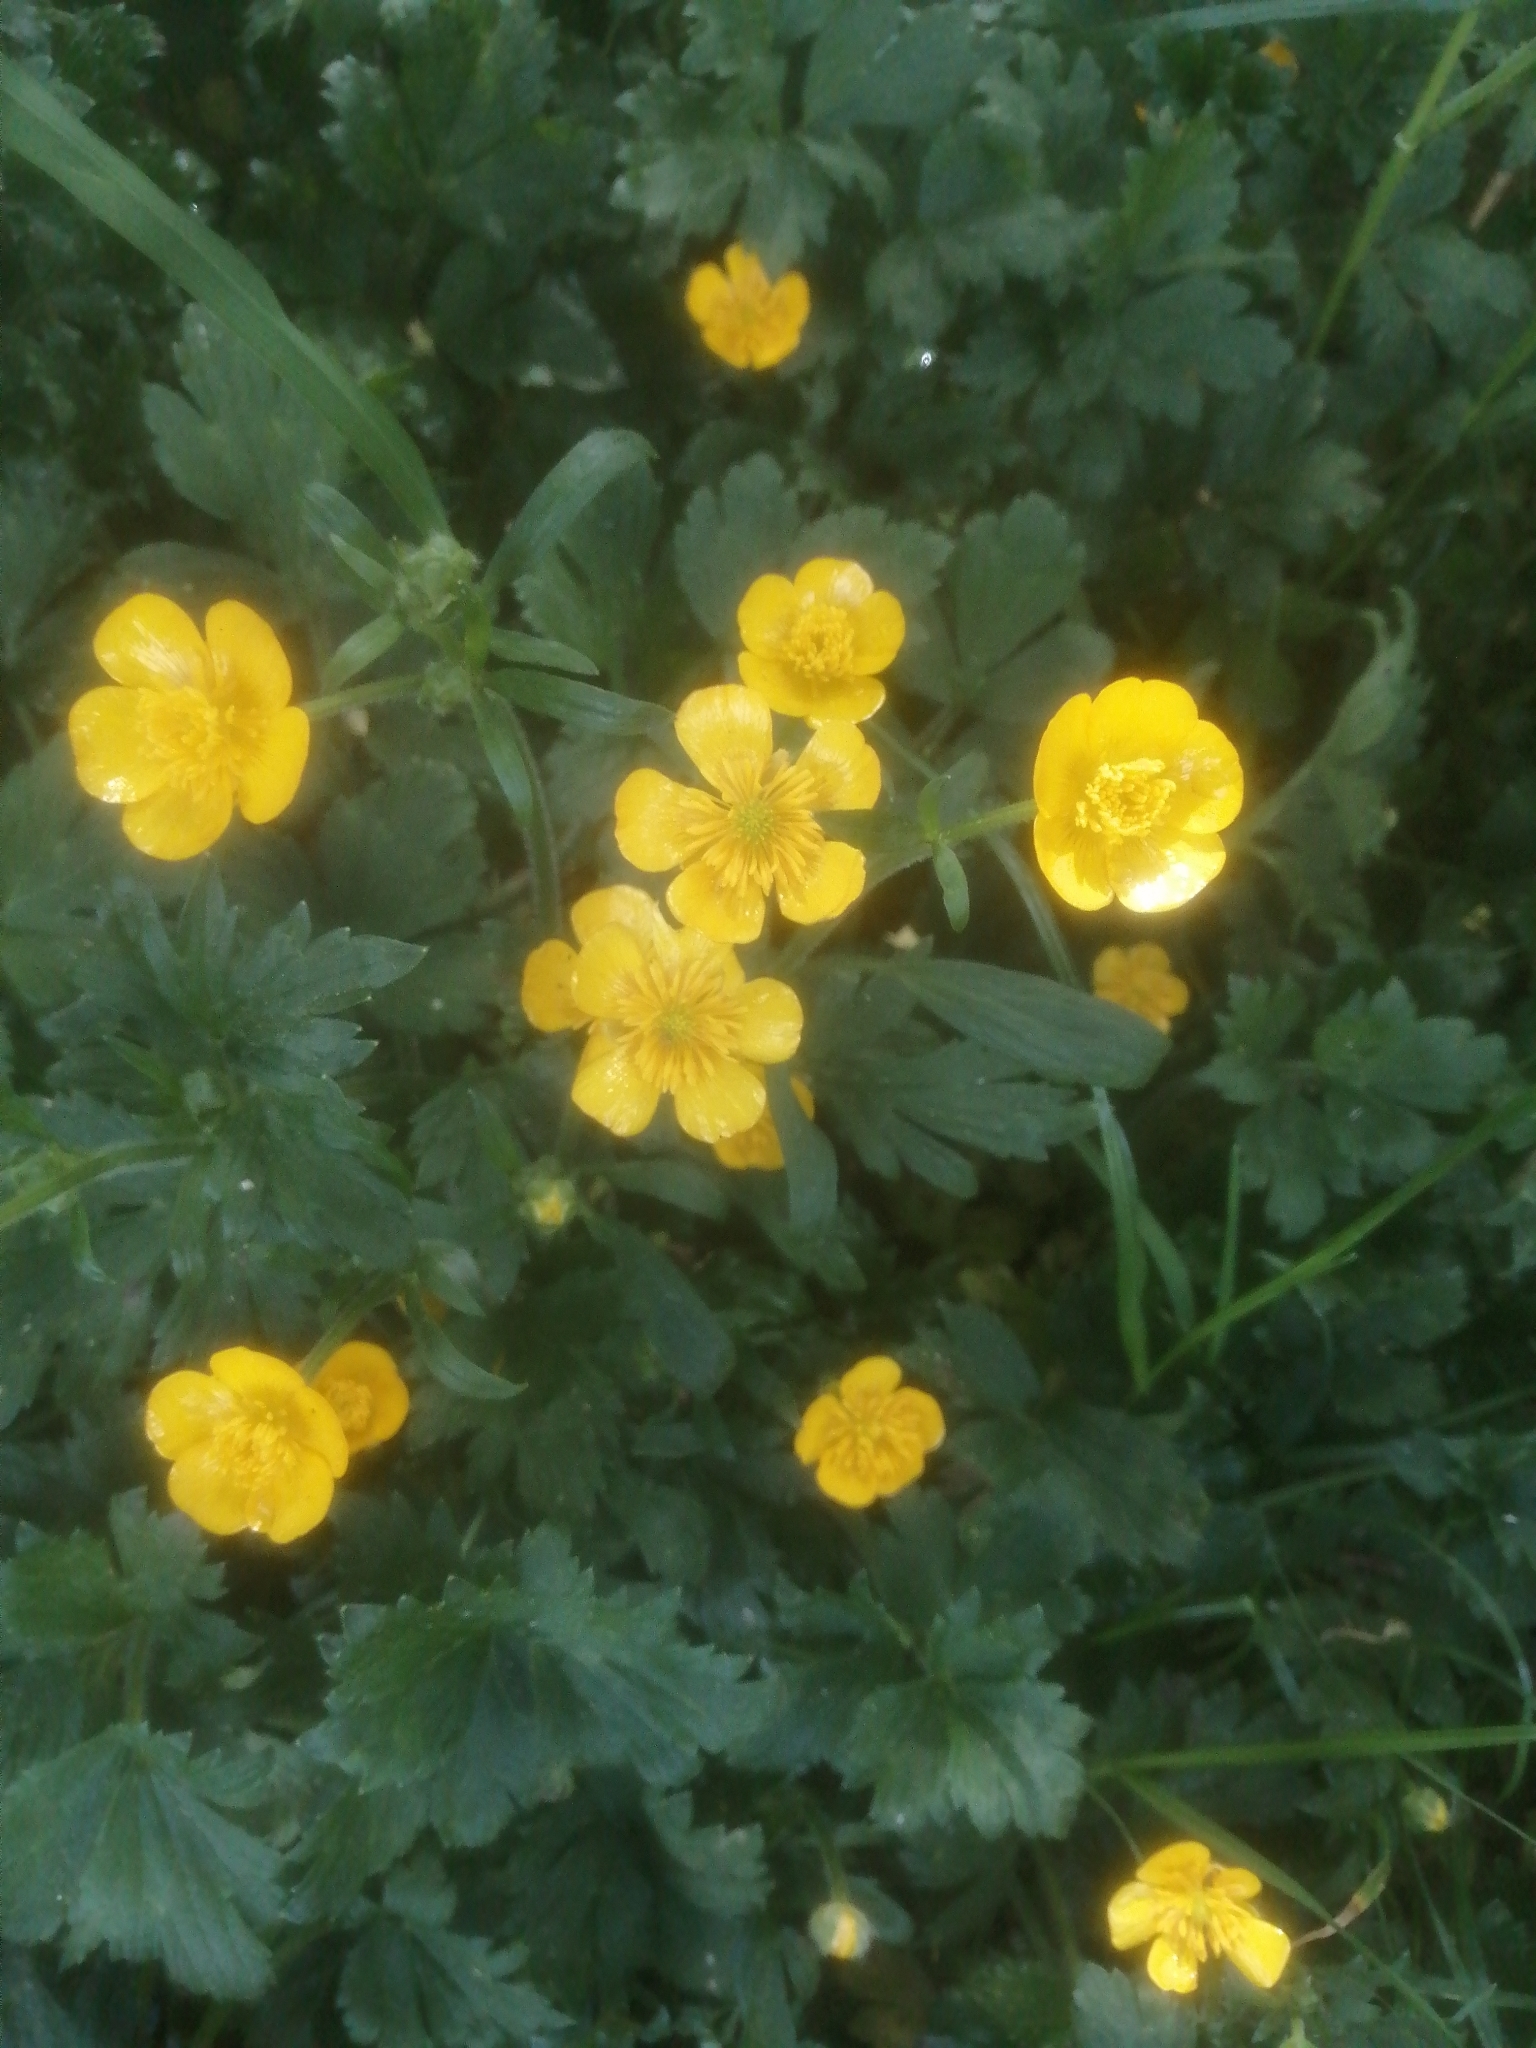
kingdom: Plantae
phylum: Tracheophyta
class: Magnoliopsida
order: Ranunculales
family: Ranunculaceae
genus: Ranunculus
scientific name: Ranunculus repens
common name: Creeping buttercup
